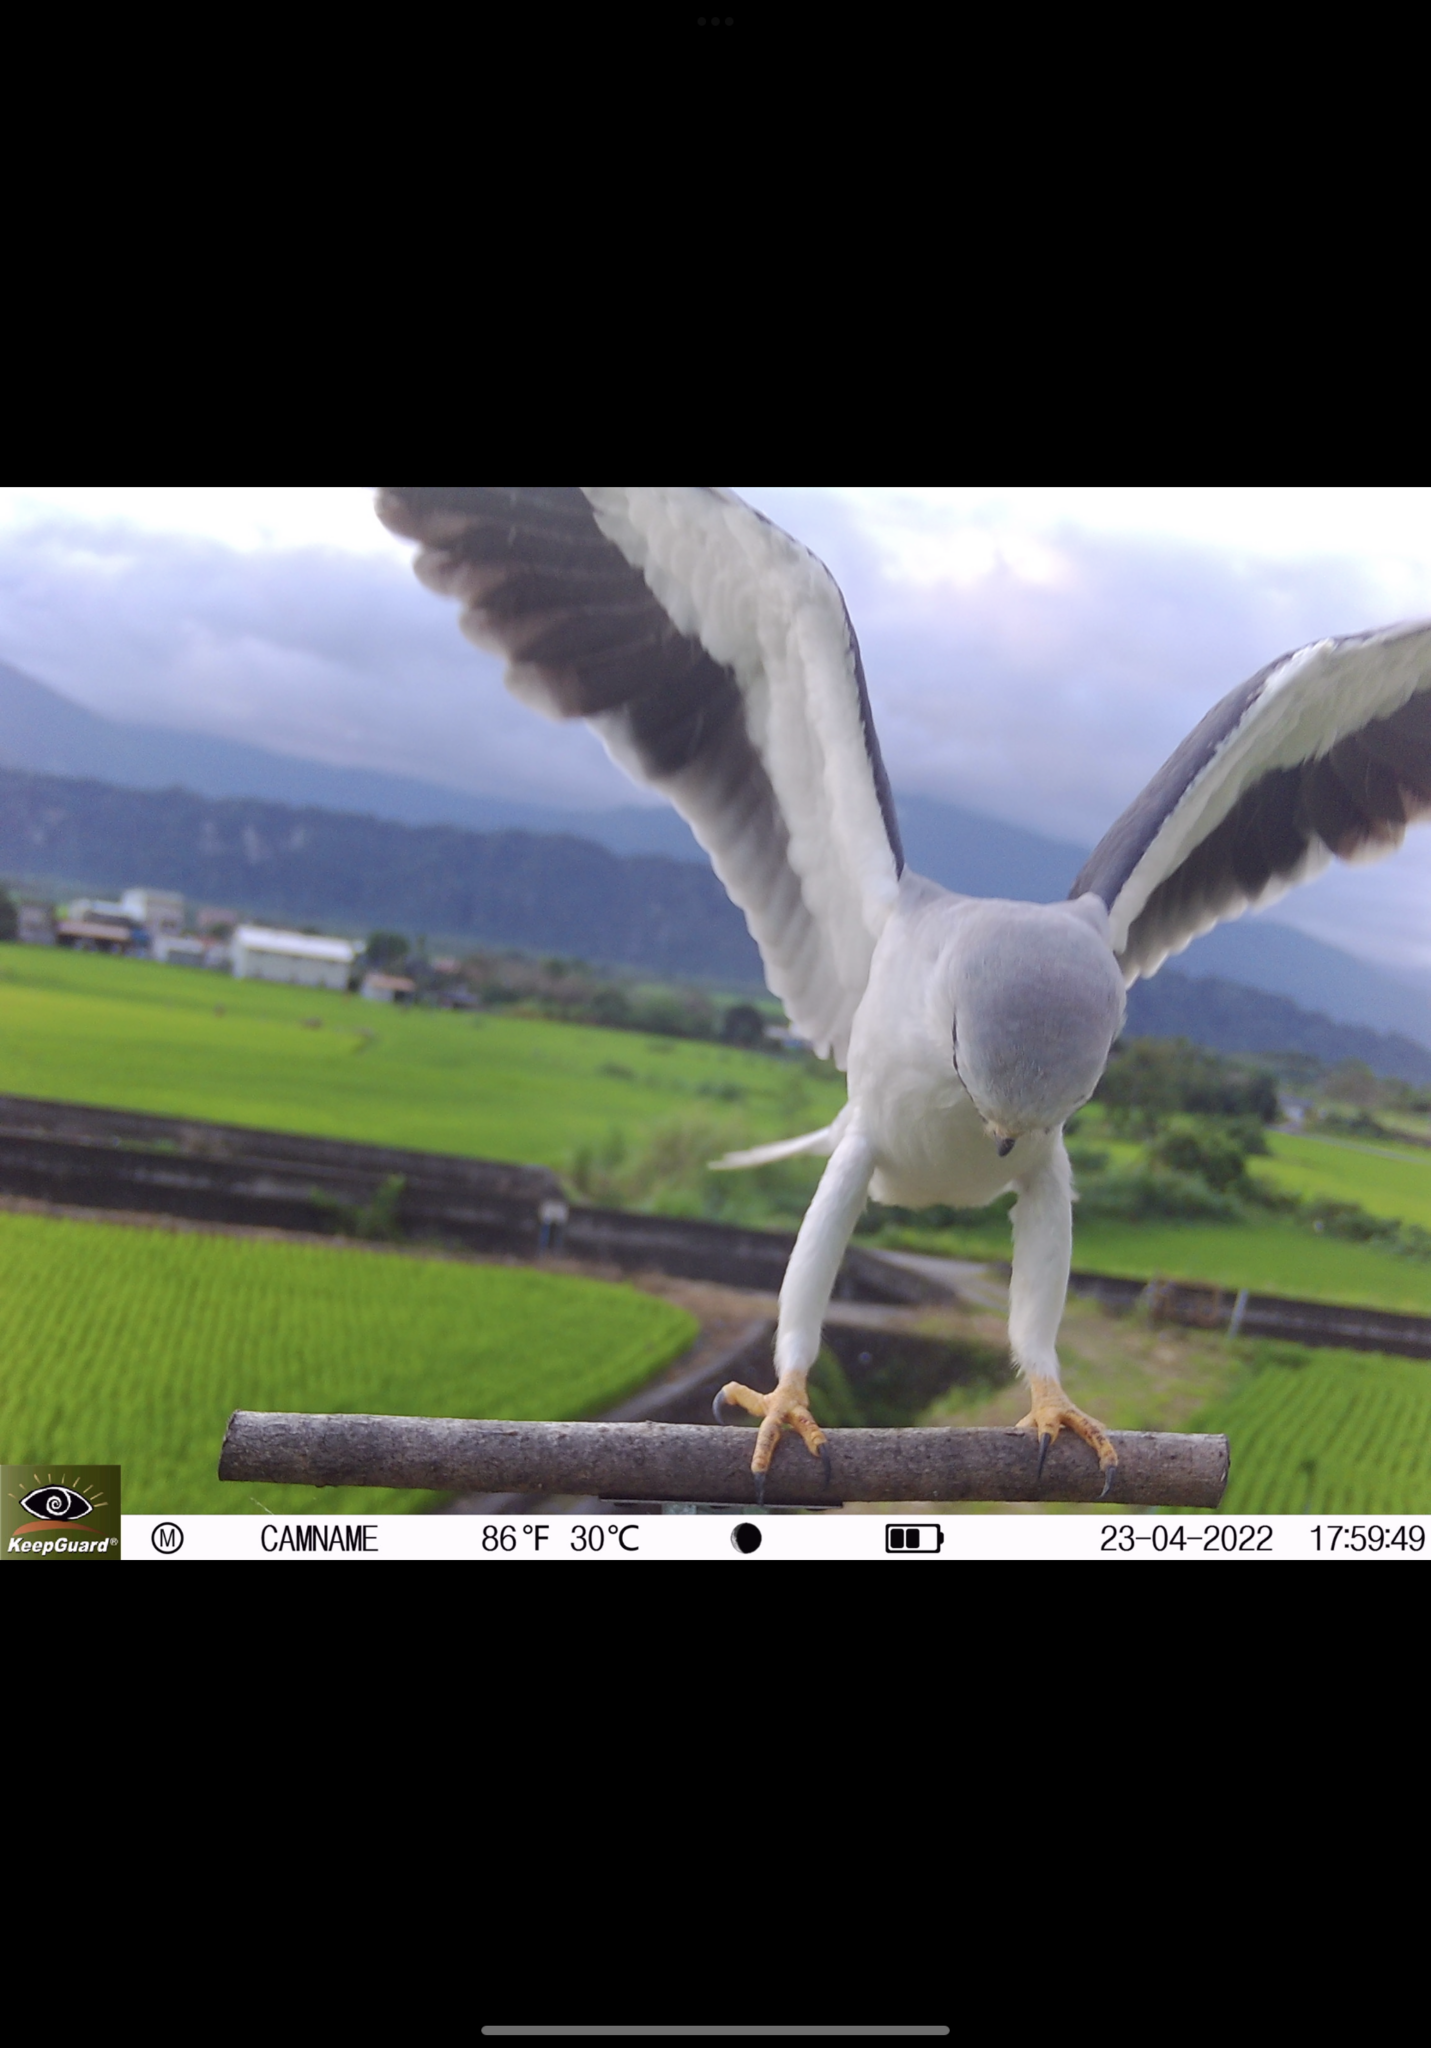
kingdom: Animalia
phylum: Chordata
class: Aves
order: Accipitriformes
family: Accipitridae
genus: Elanus
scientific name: Elanus caeruleus
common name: Black-winged kite
